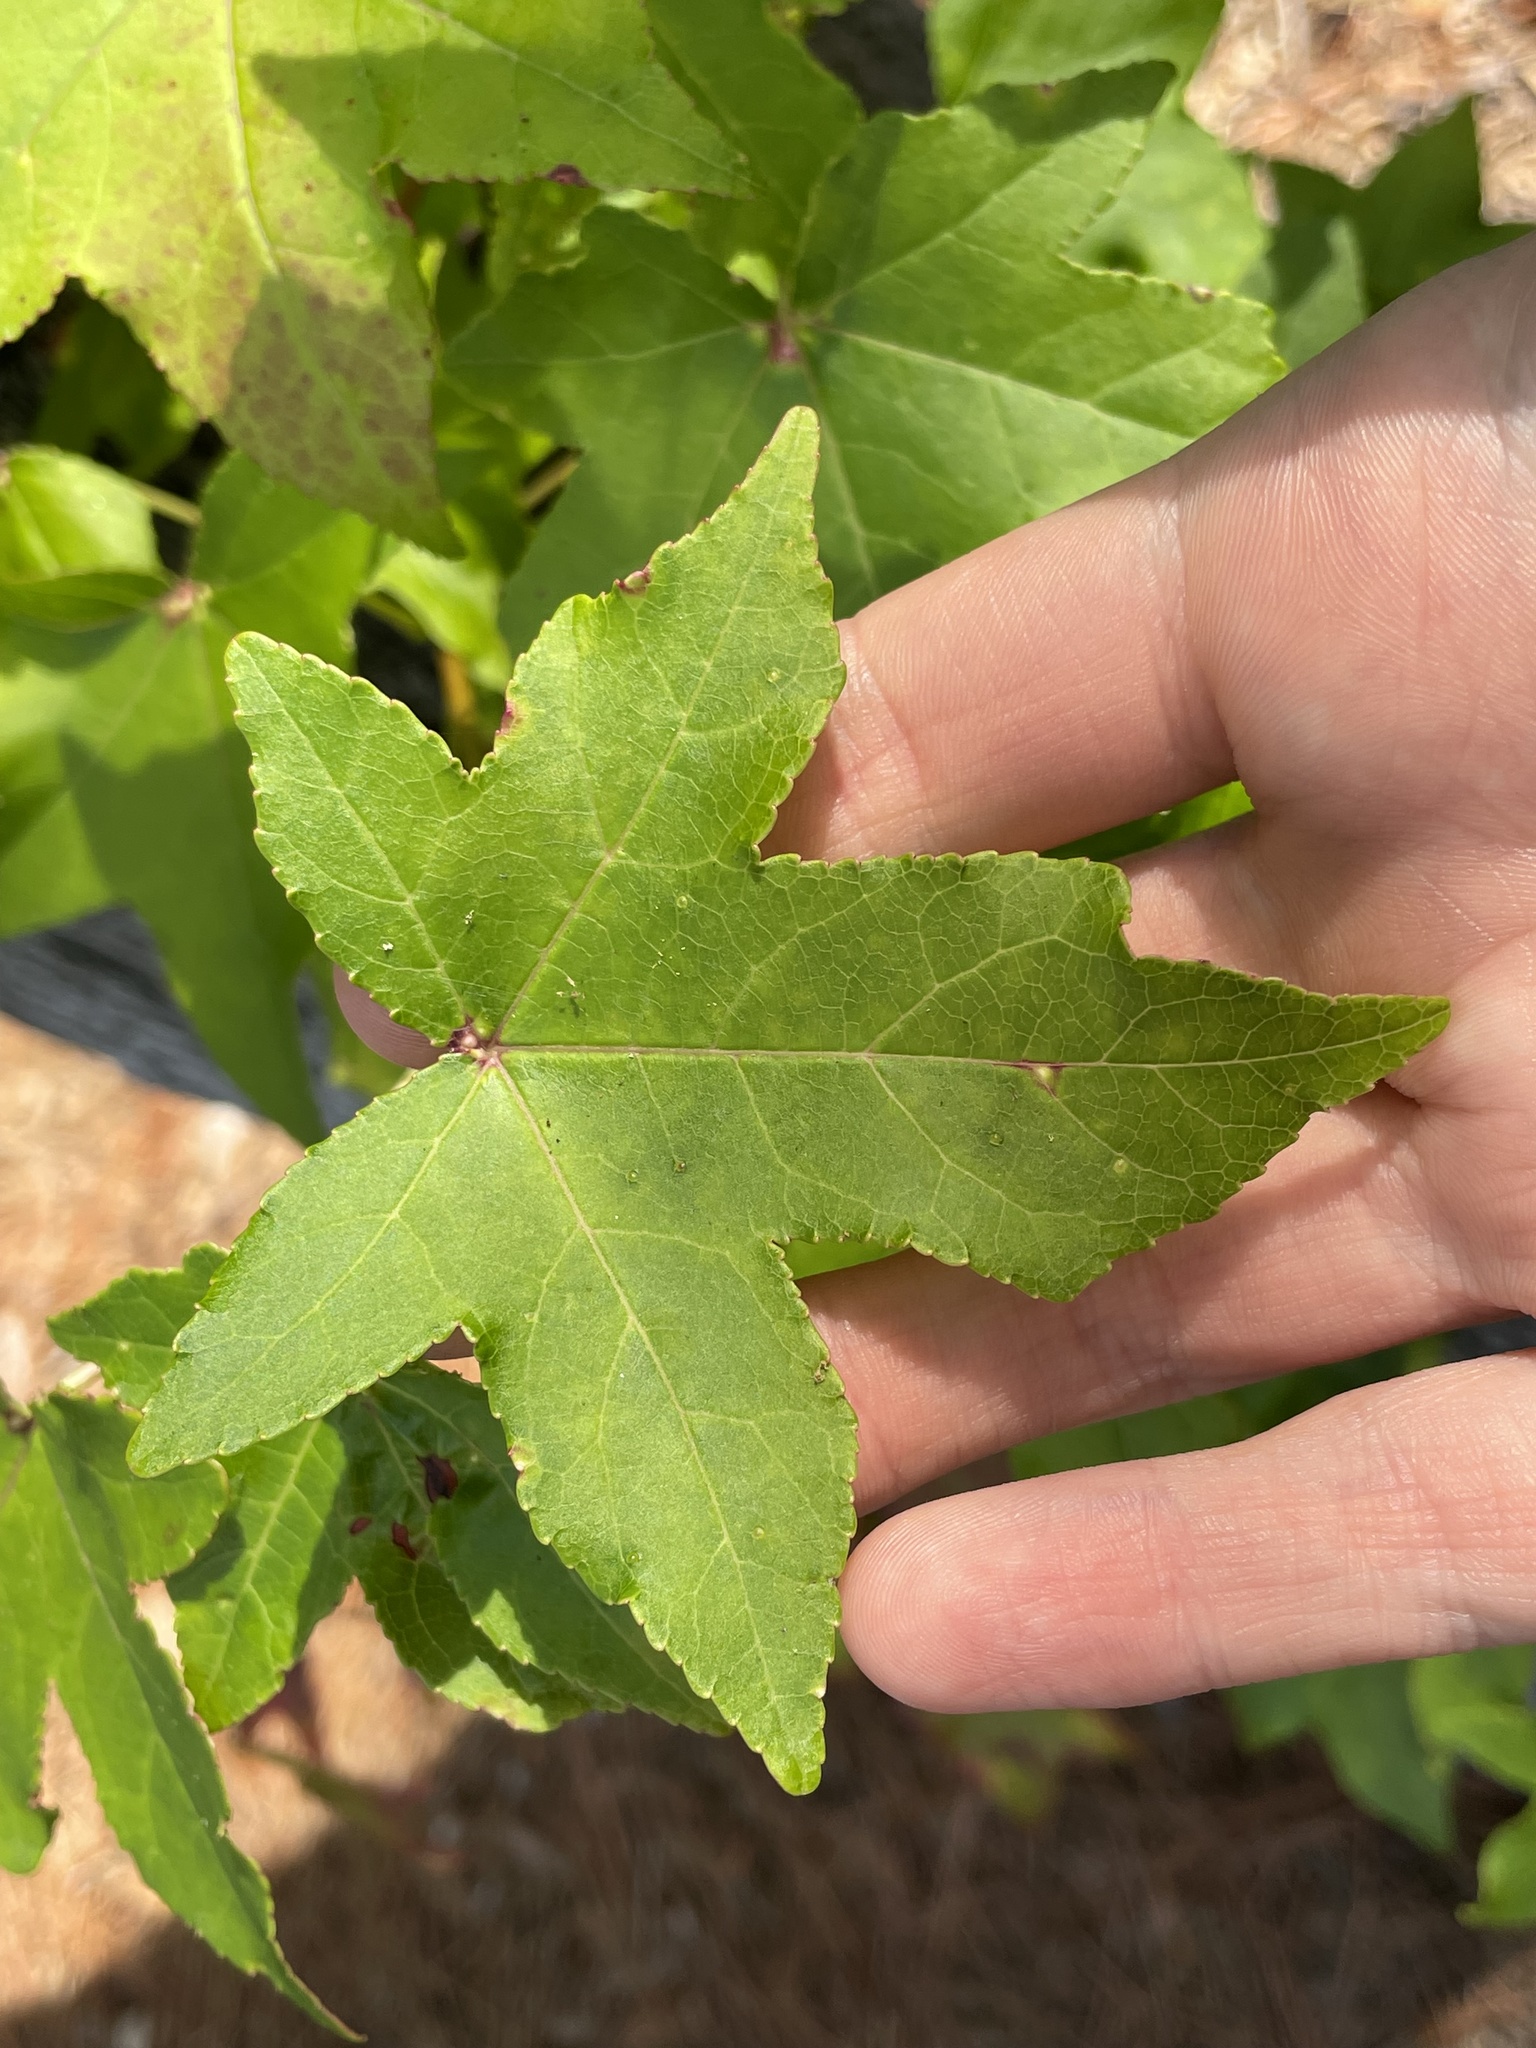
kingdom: Plantae
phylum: Tracheophyta
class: Magnoliopsida
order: Saxifragales
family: Altingiaceae
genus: Liquidambar
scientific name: Liquidambar styraciflua
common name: Sweet gum
